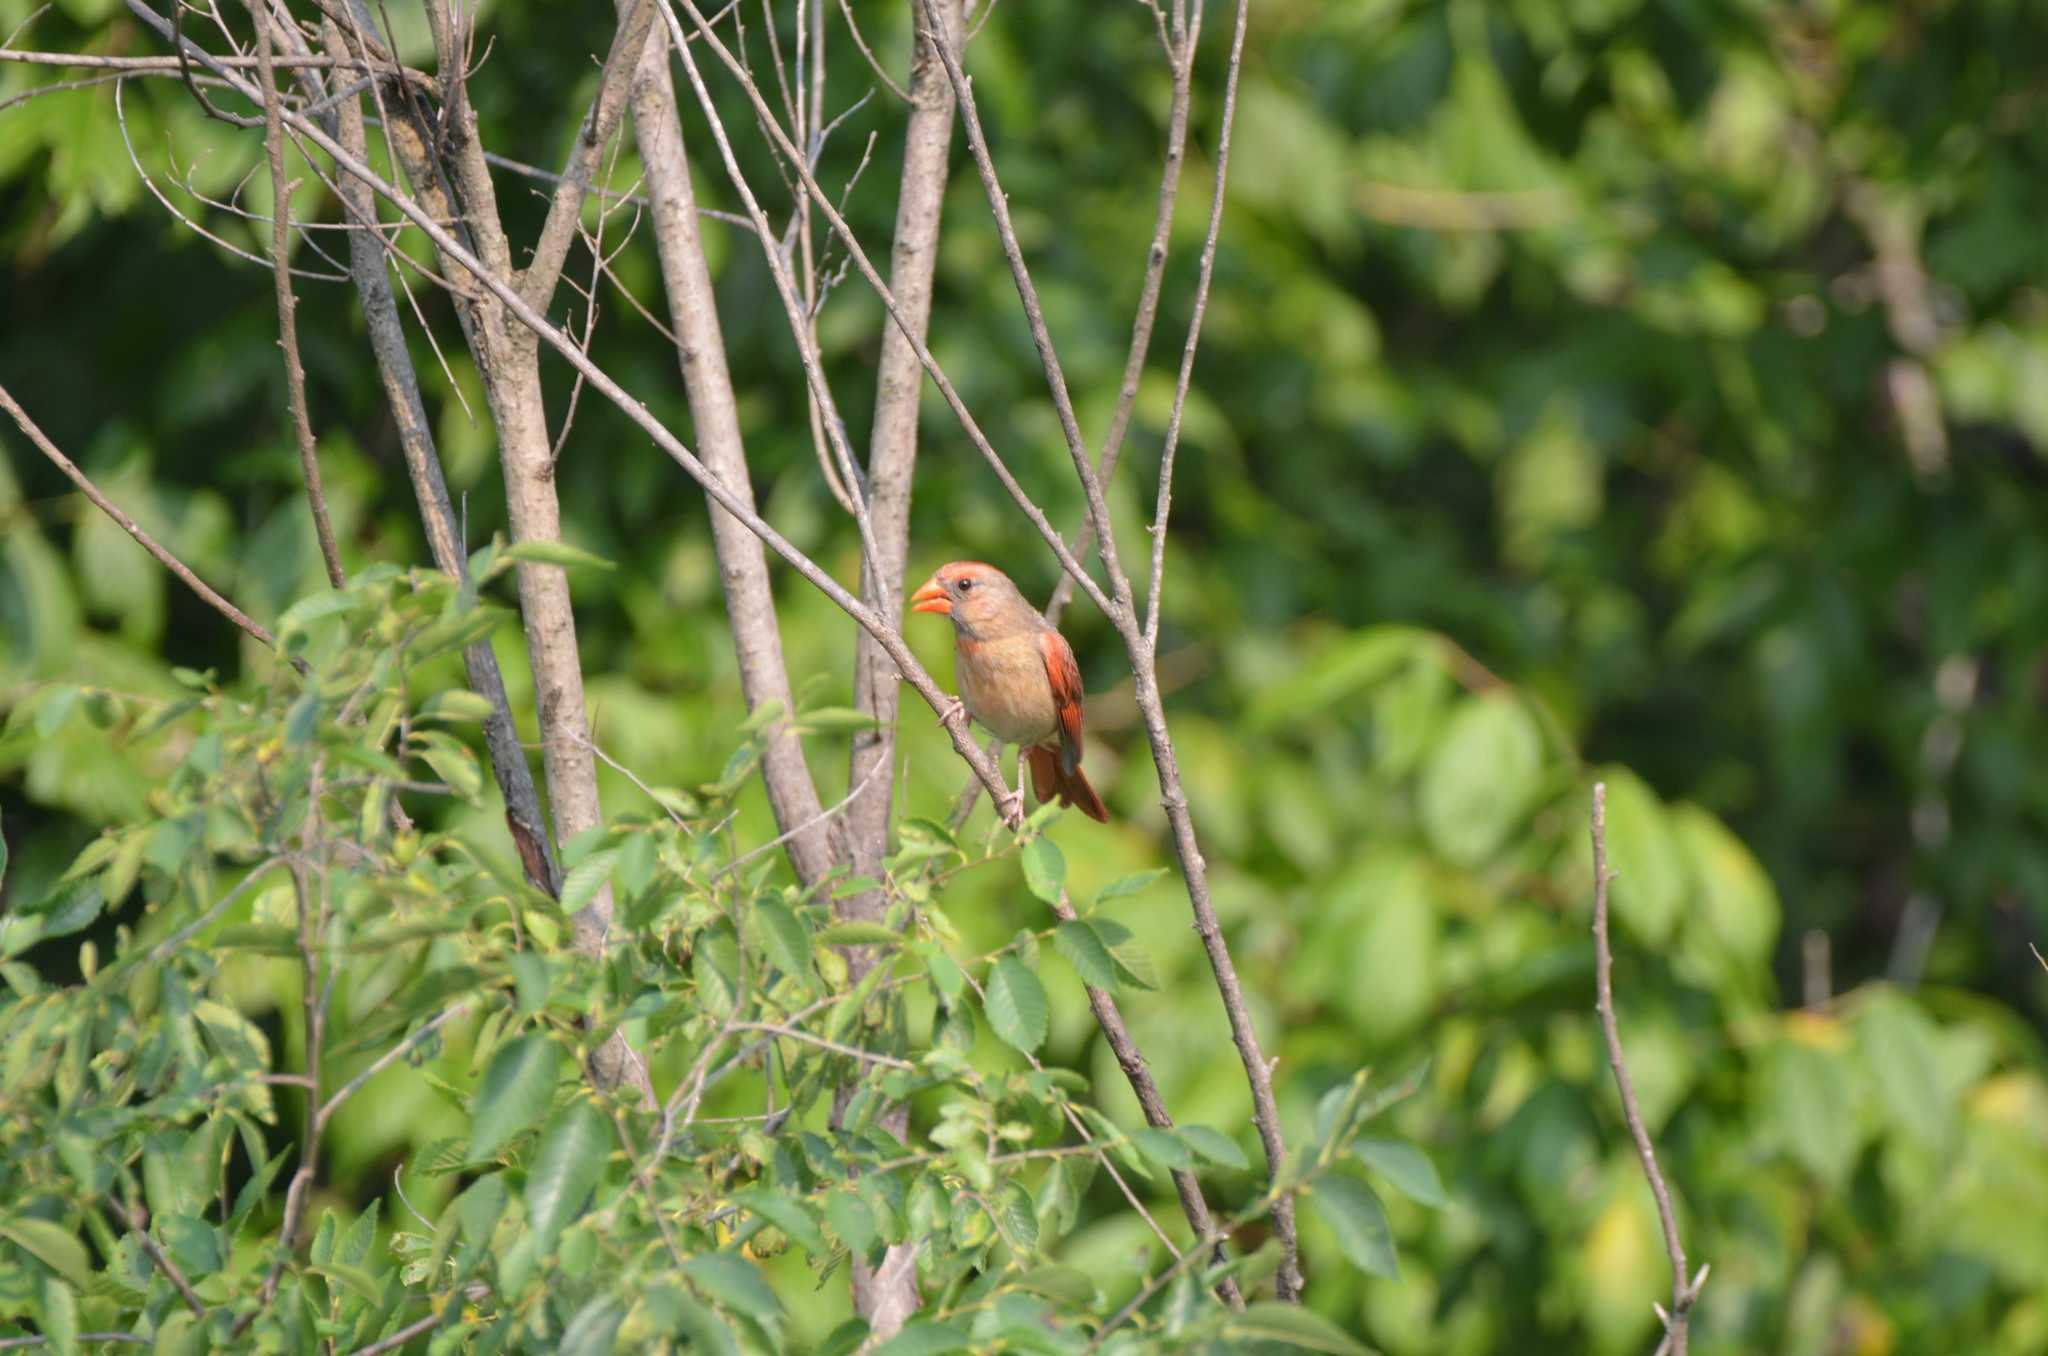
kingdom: Animalia
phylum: Chordata
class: Aves
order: Passeriformes
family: Cardinalidae
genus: Cardinalis
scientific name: Cardinalis cardinalis
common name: Northern cardinal
